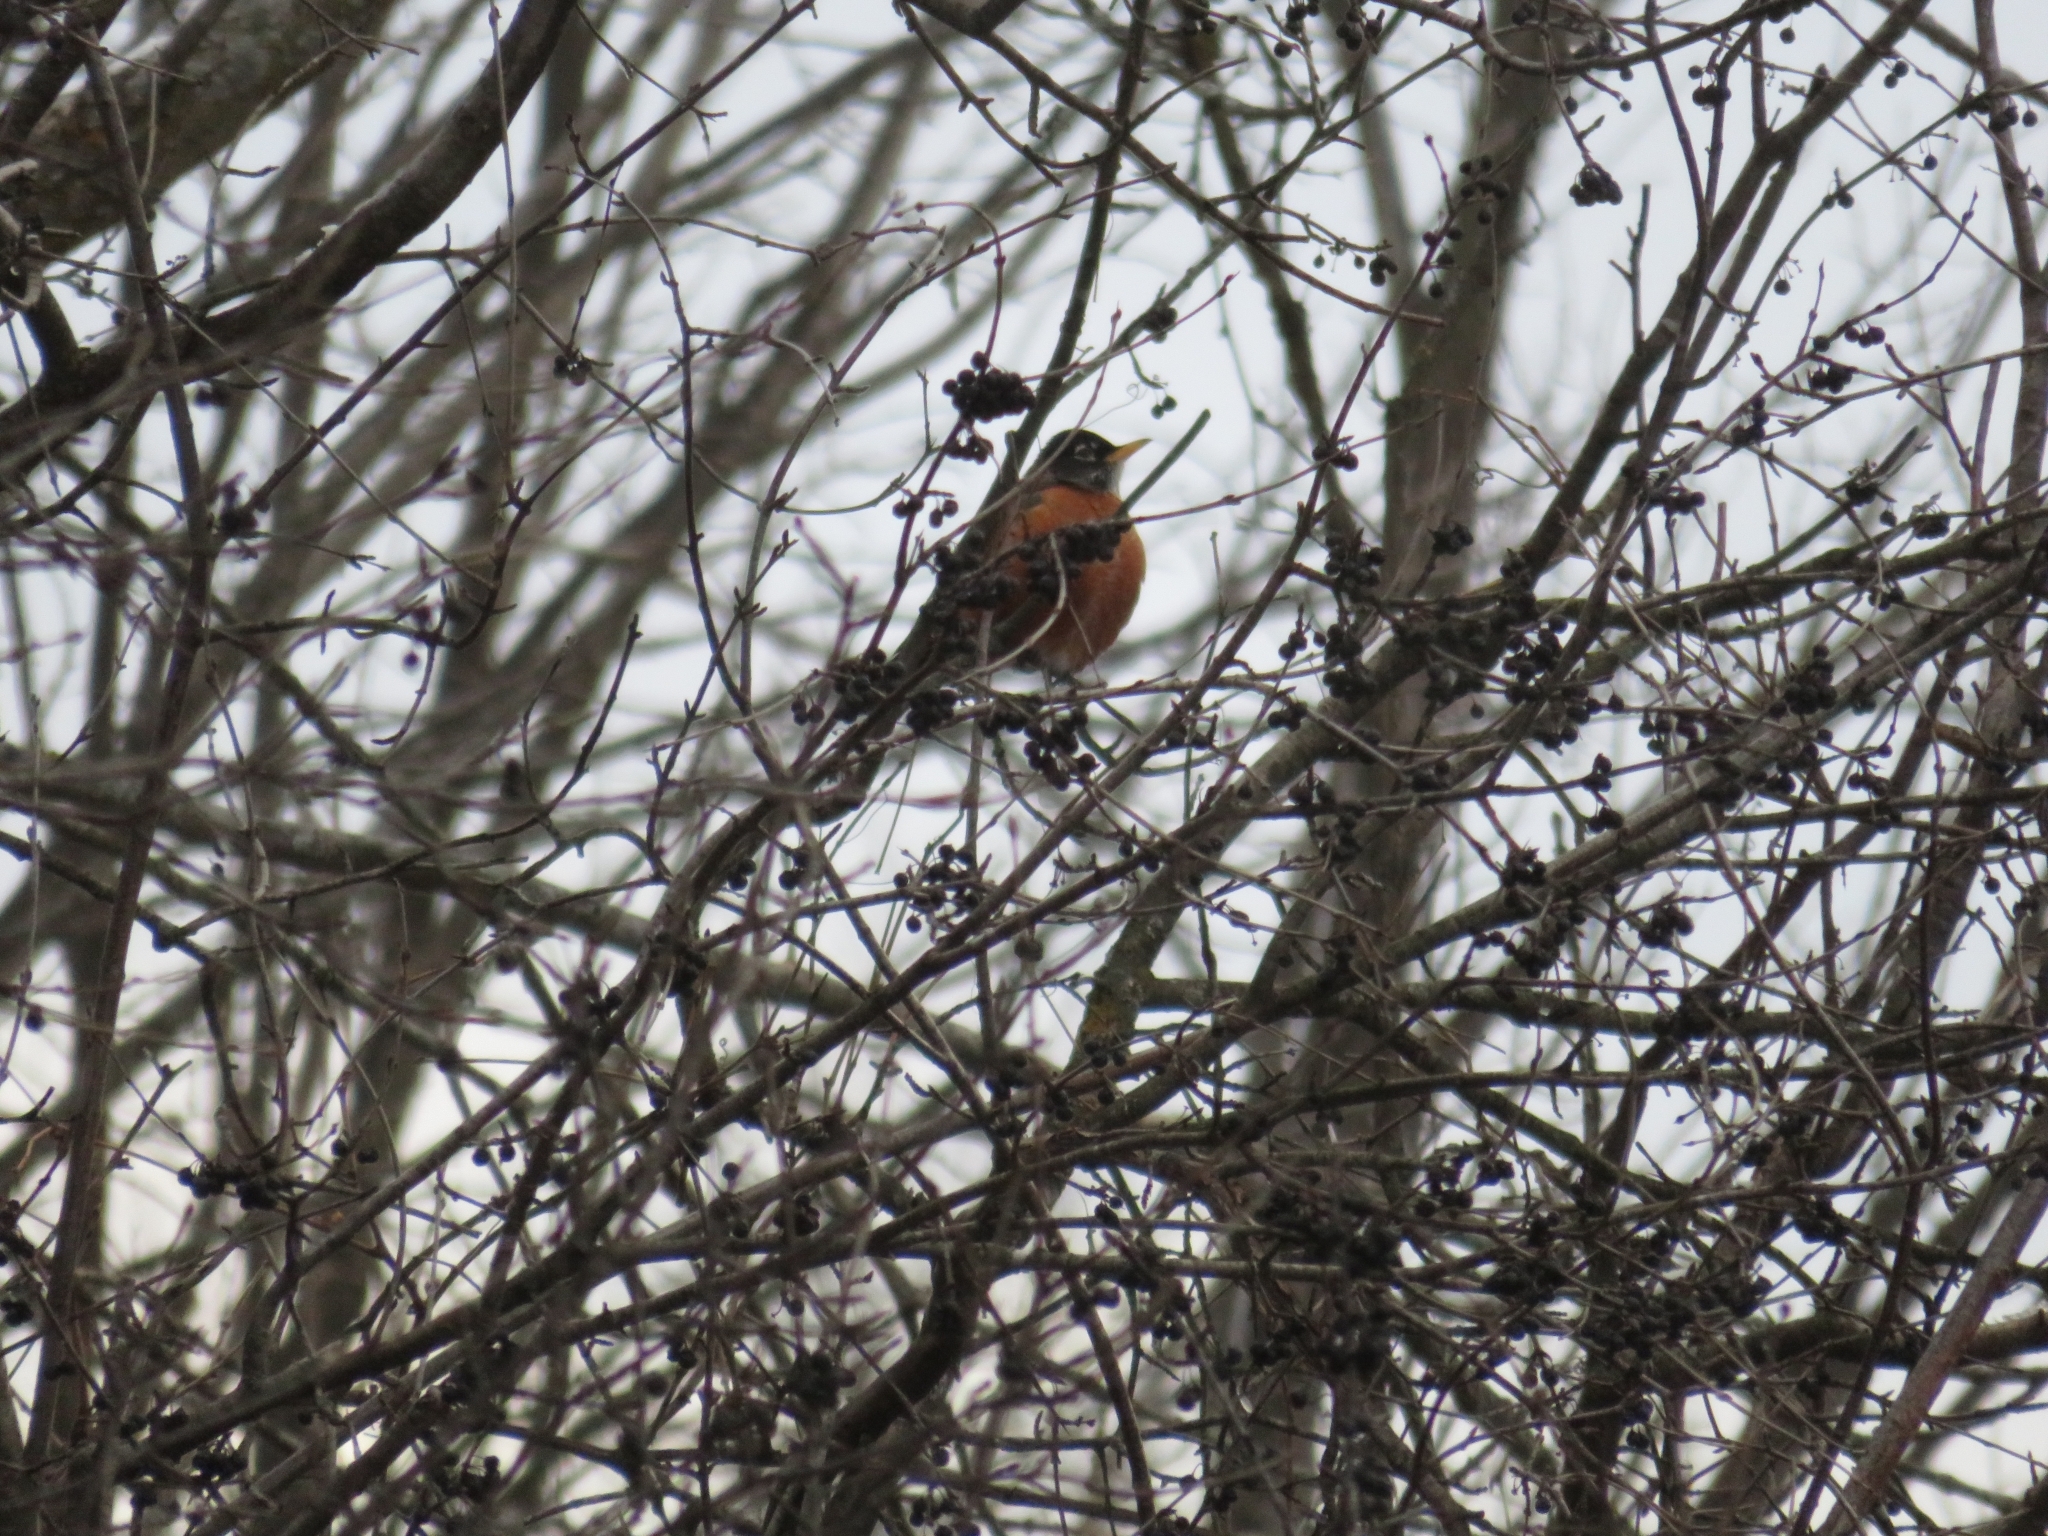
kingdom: Animalia
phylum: Chordata
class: Aves
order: Passeriformes
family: Turdidae
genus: Turdus
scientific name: Turdus migratorius
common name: American robin
